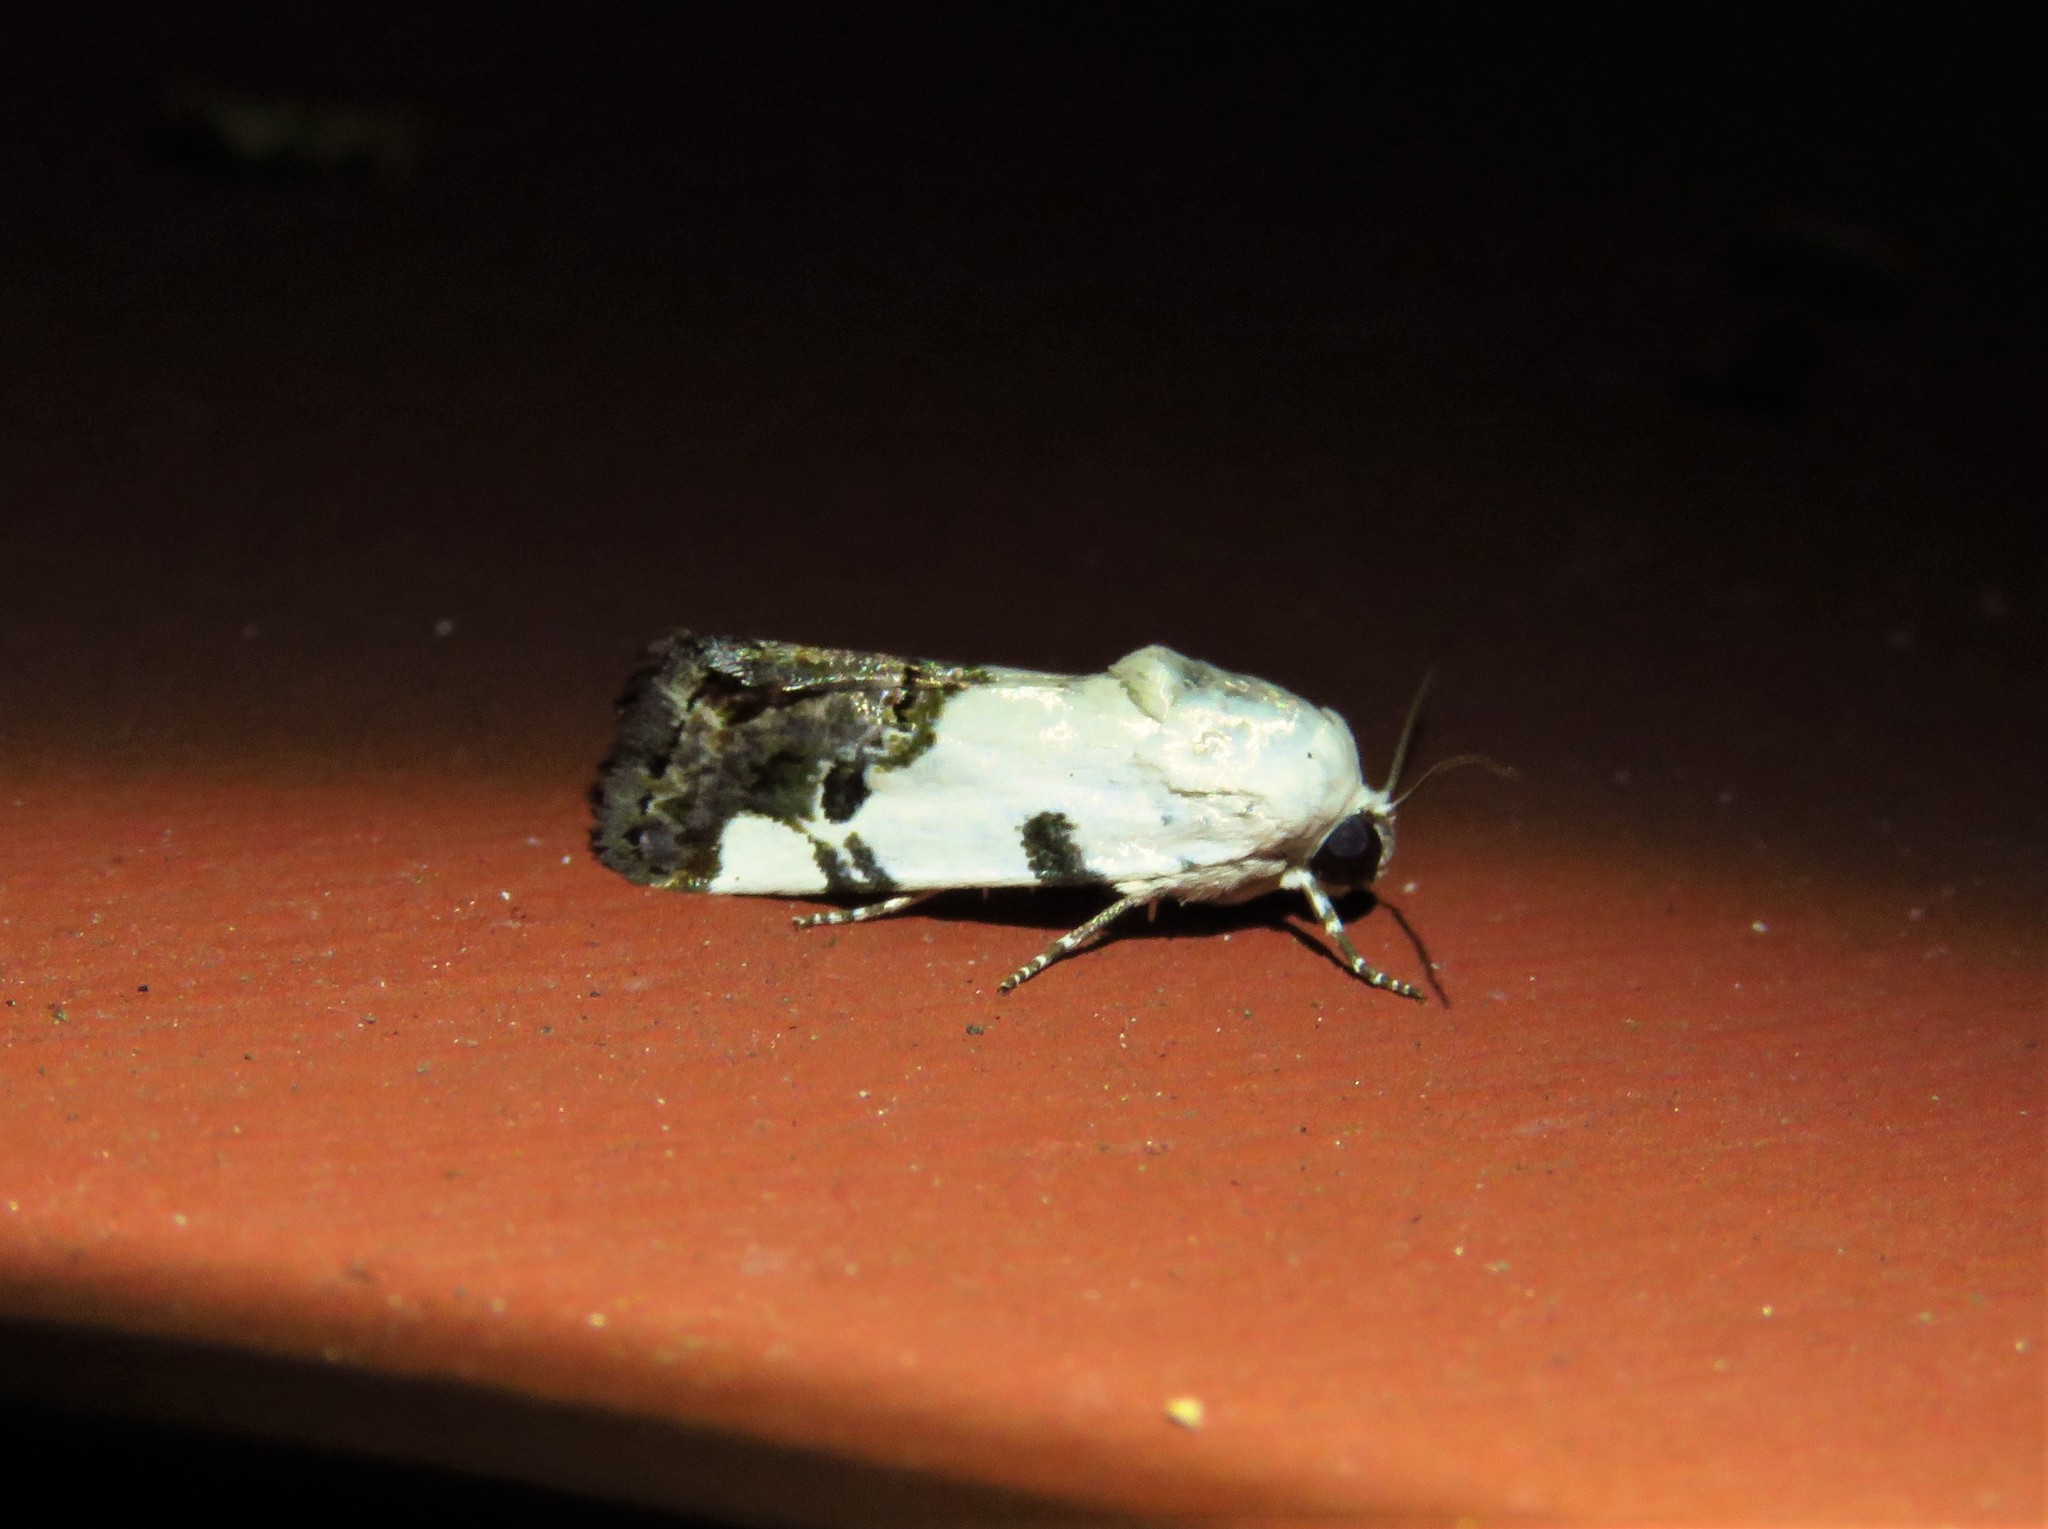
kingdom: Animalia
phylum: Arthropoda
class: Insecta
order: Lepidoptera
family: Noctuidae
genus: Acontia
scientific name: Acontia Tarache tetragona
